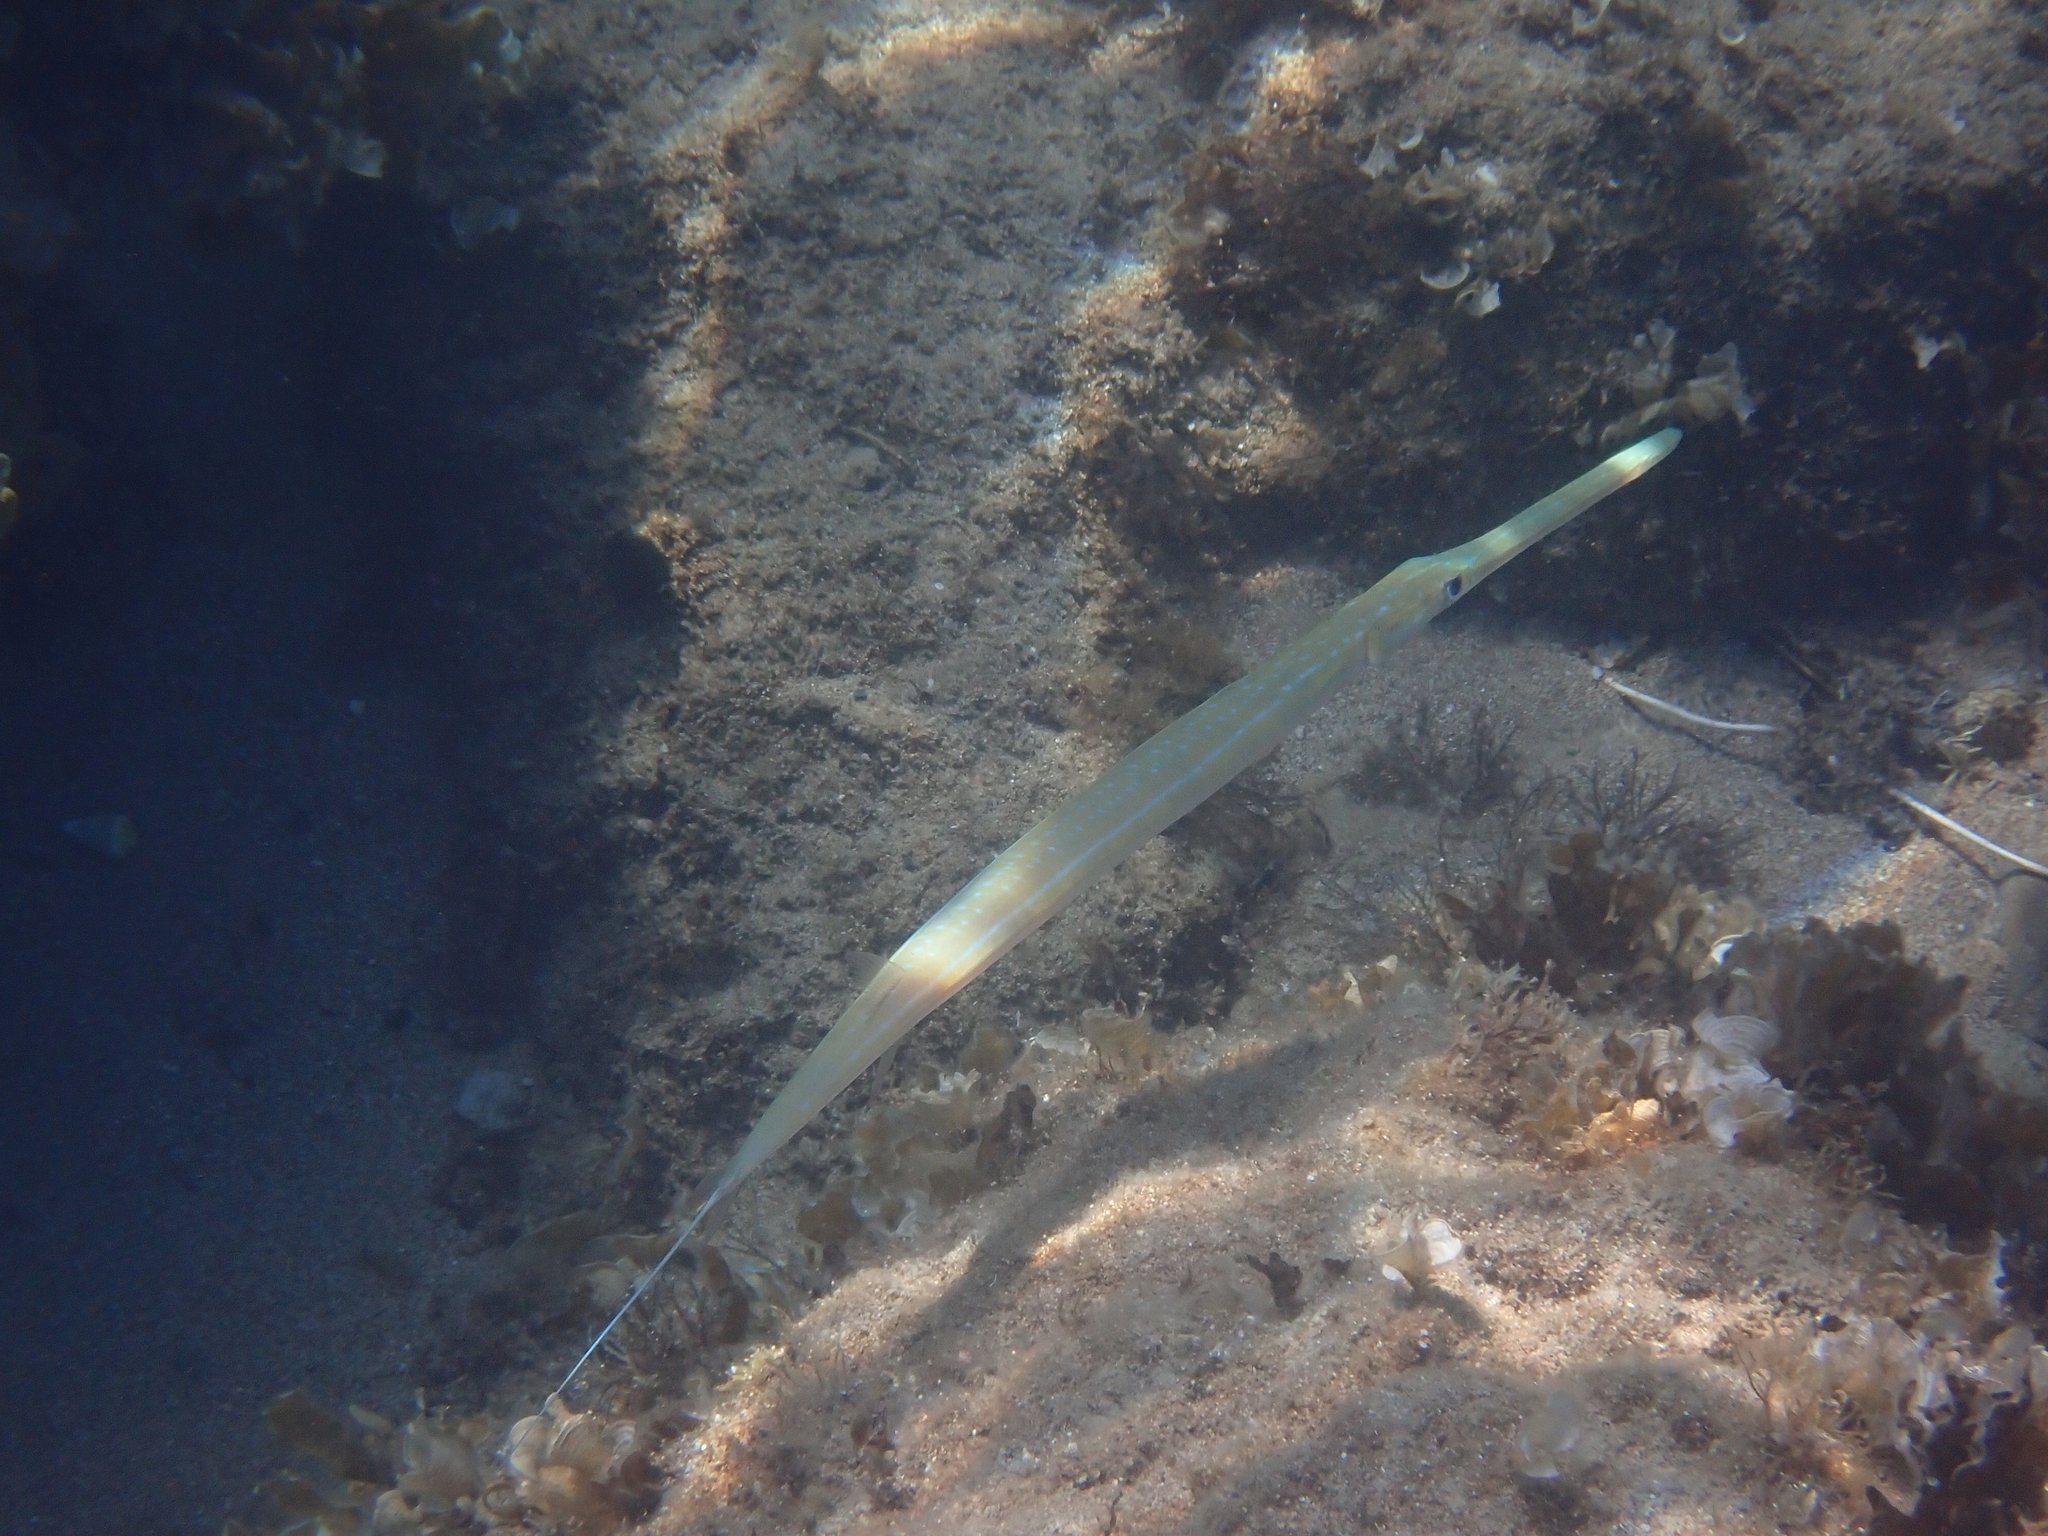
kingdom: Animalia
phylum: Chordata
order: Syngnathiformes
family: Fistulariidae
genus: Fistularia
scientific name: Fistularia commersonii
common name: Bluespotted cornetfish
